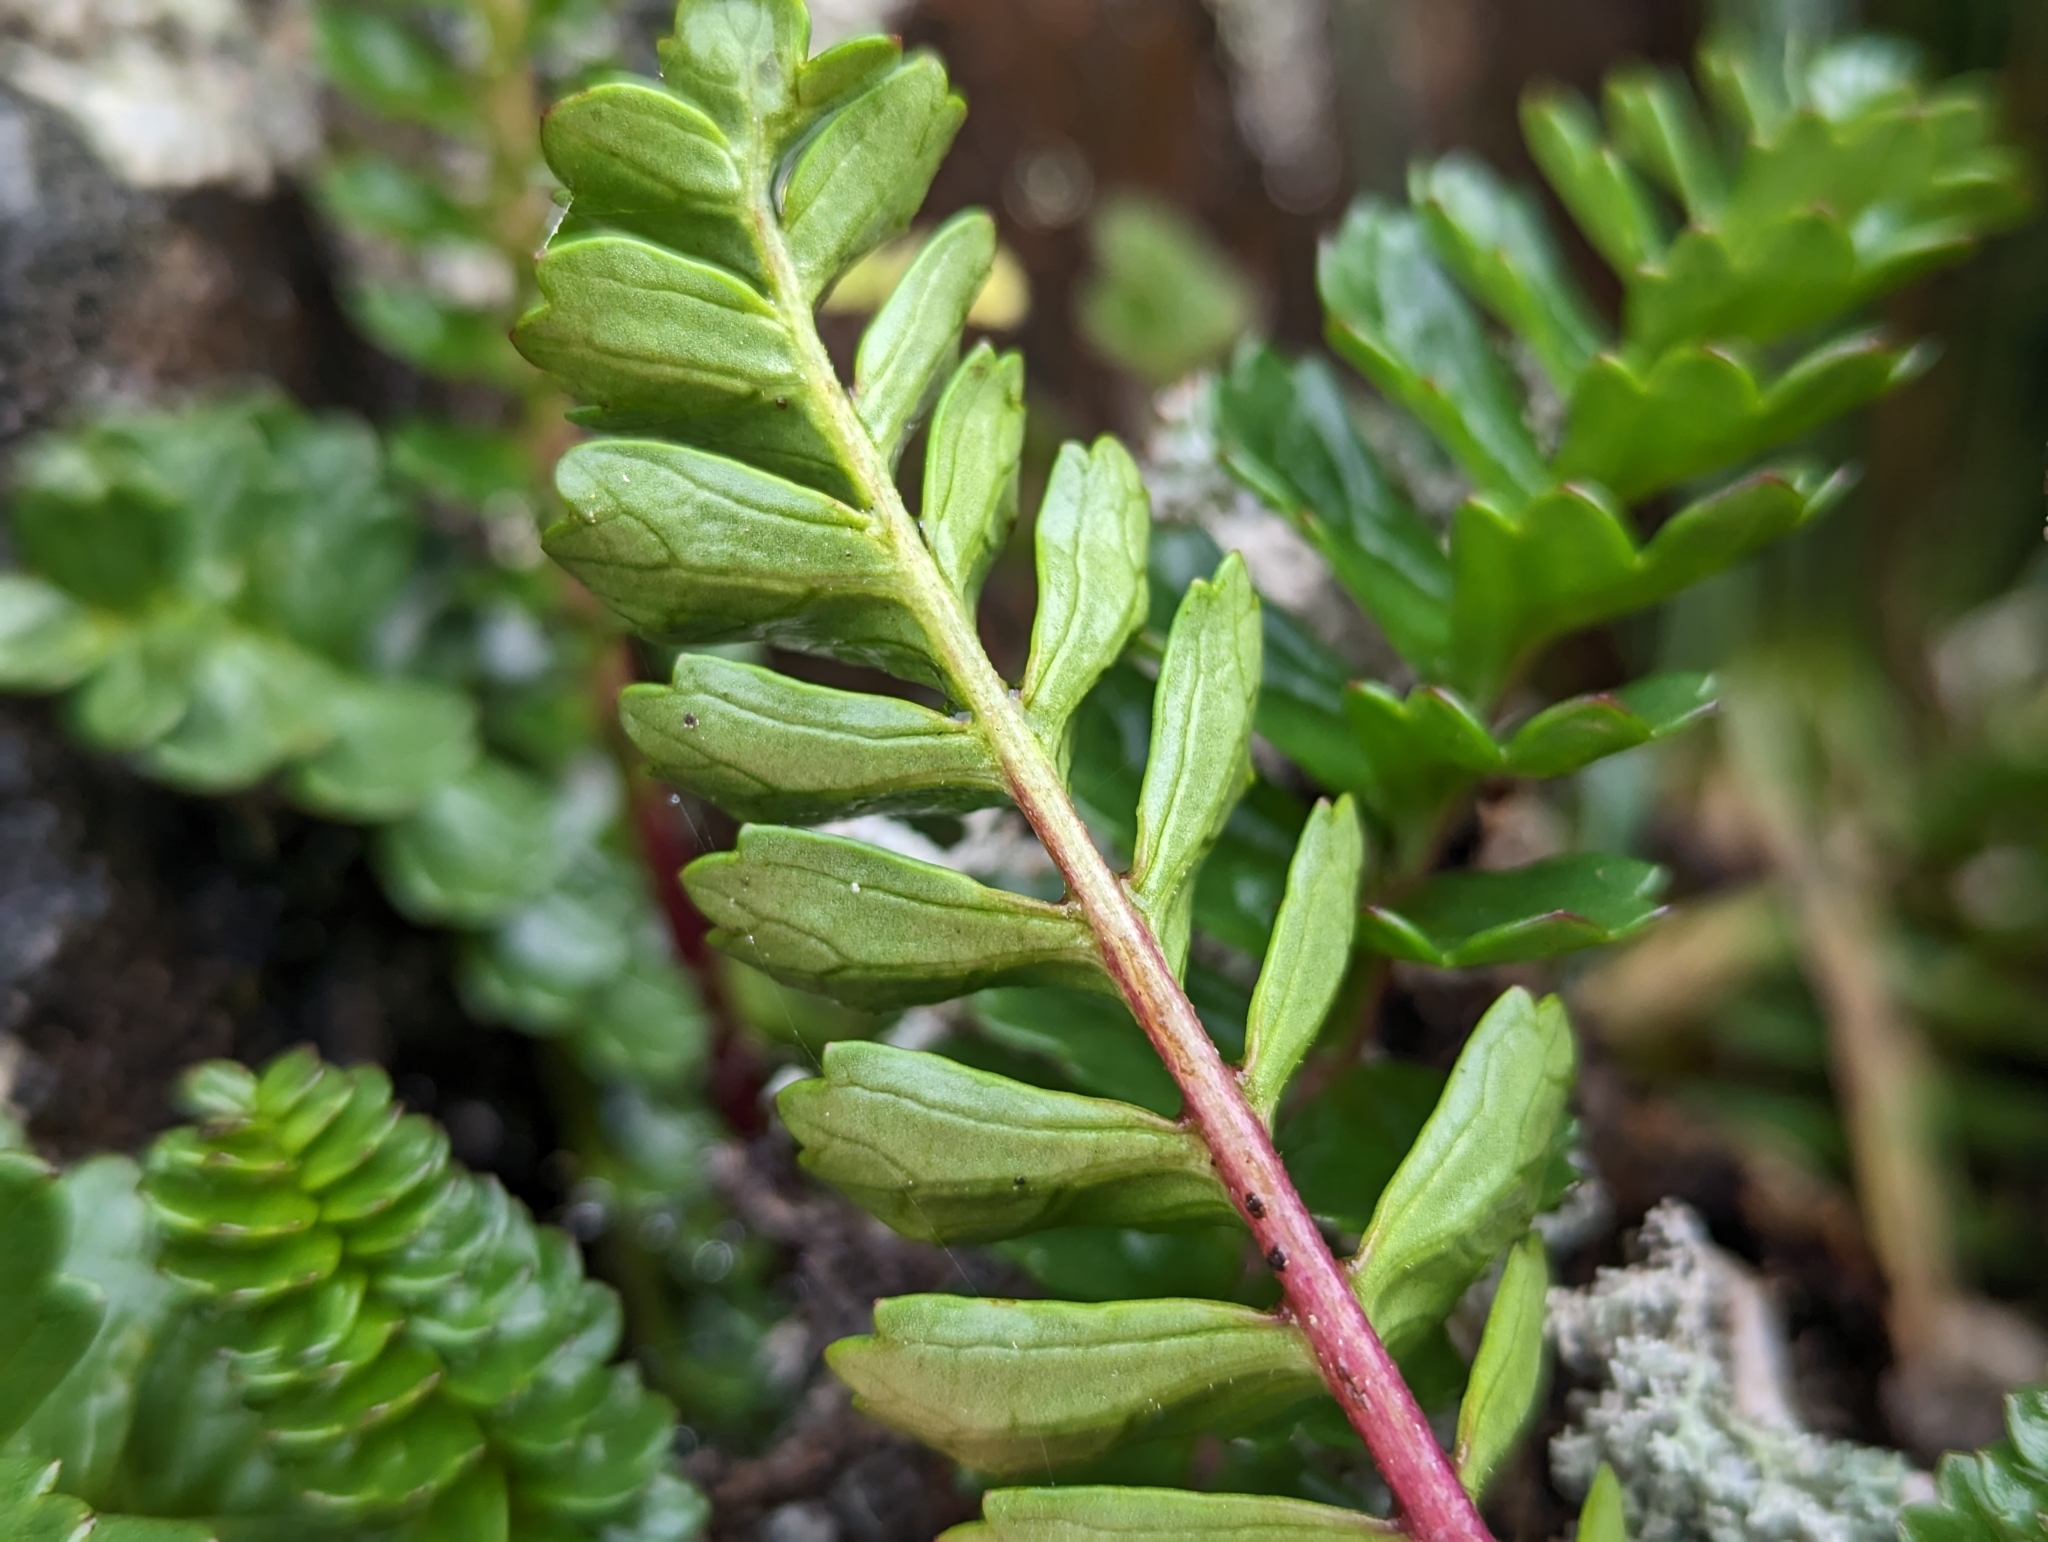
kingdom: Plantae
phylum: Tracheophyta
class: Magnoliopsida
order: Asterales
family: Asteraceae
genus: Dorobaea
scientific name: Dorobaea pimpinellifolia
